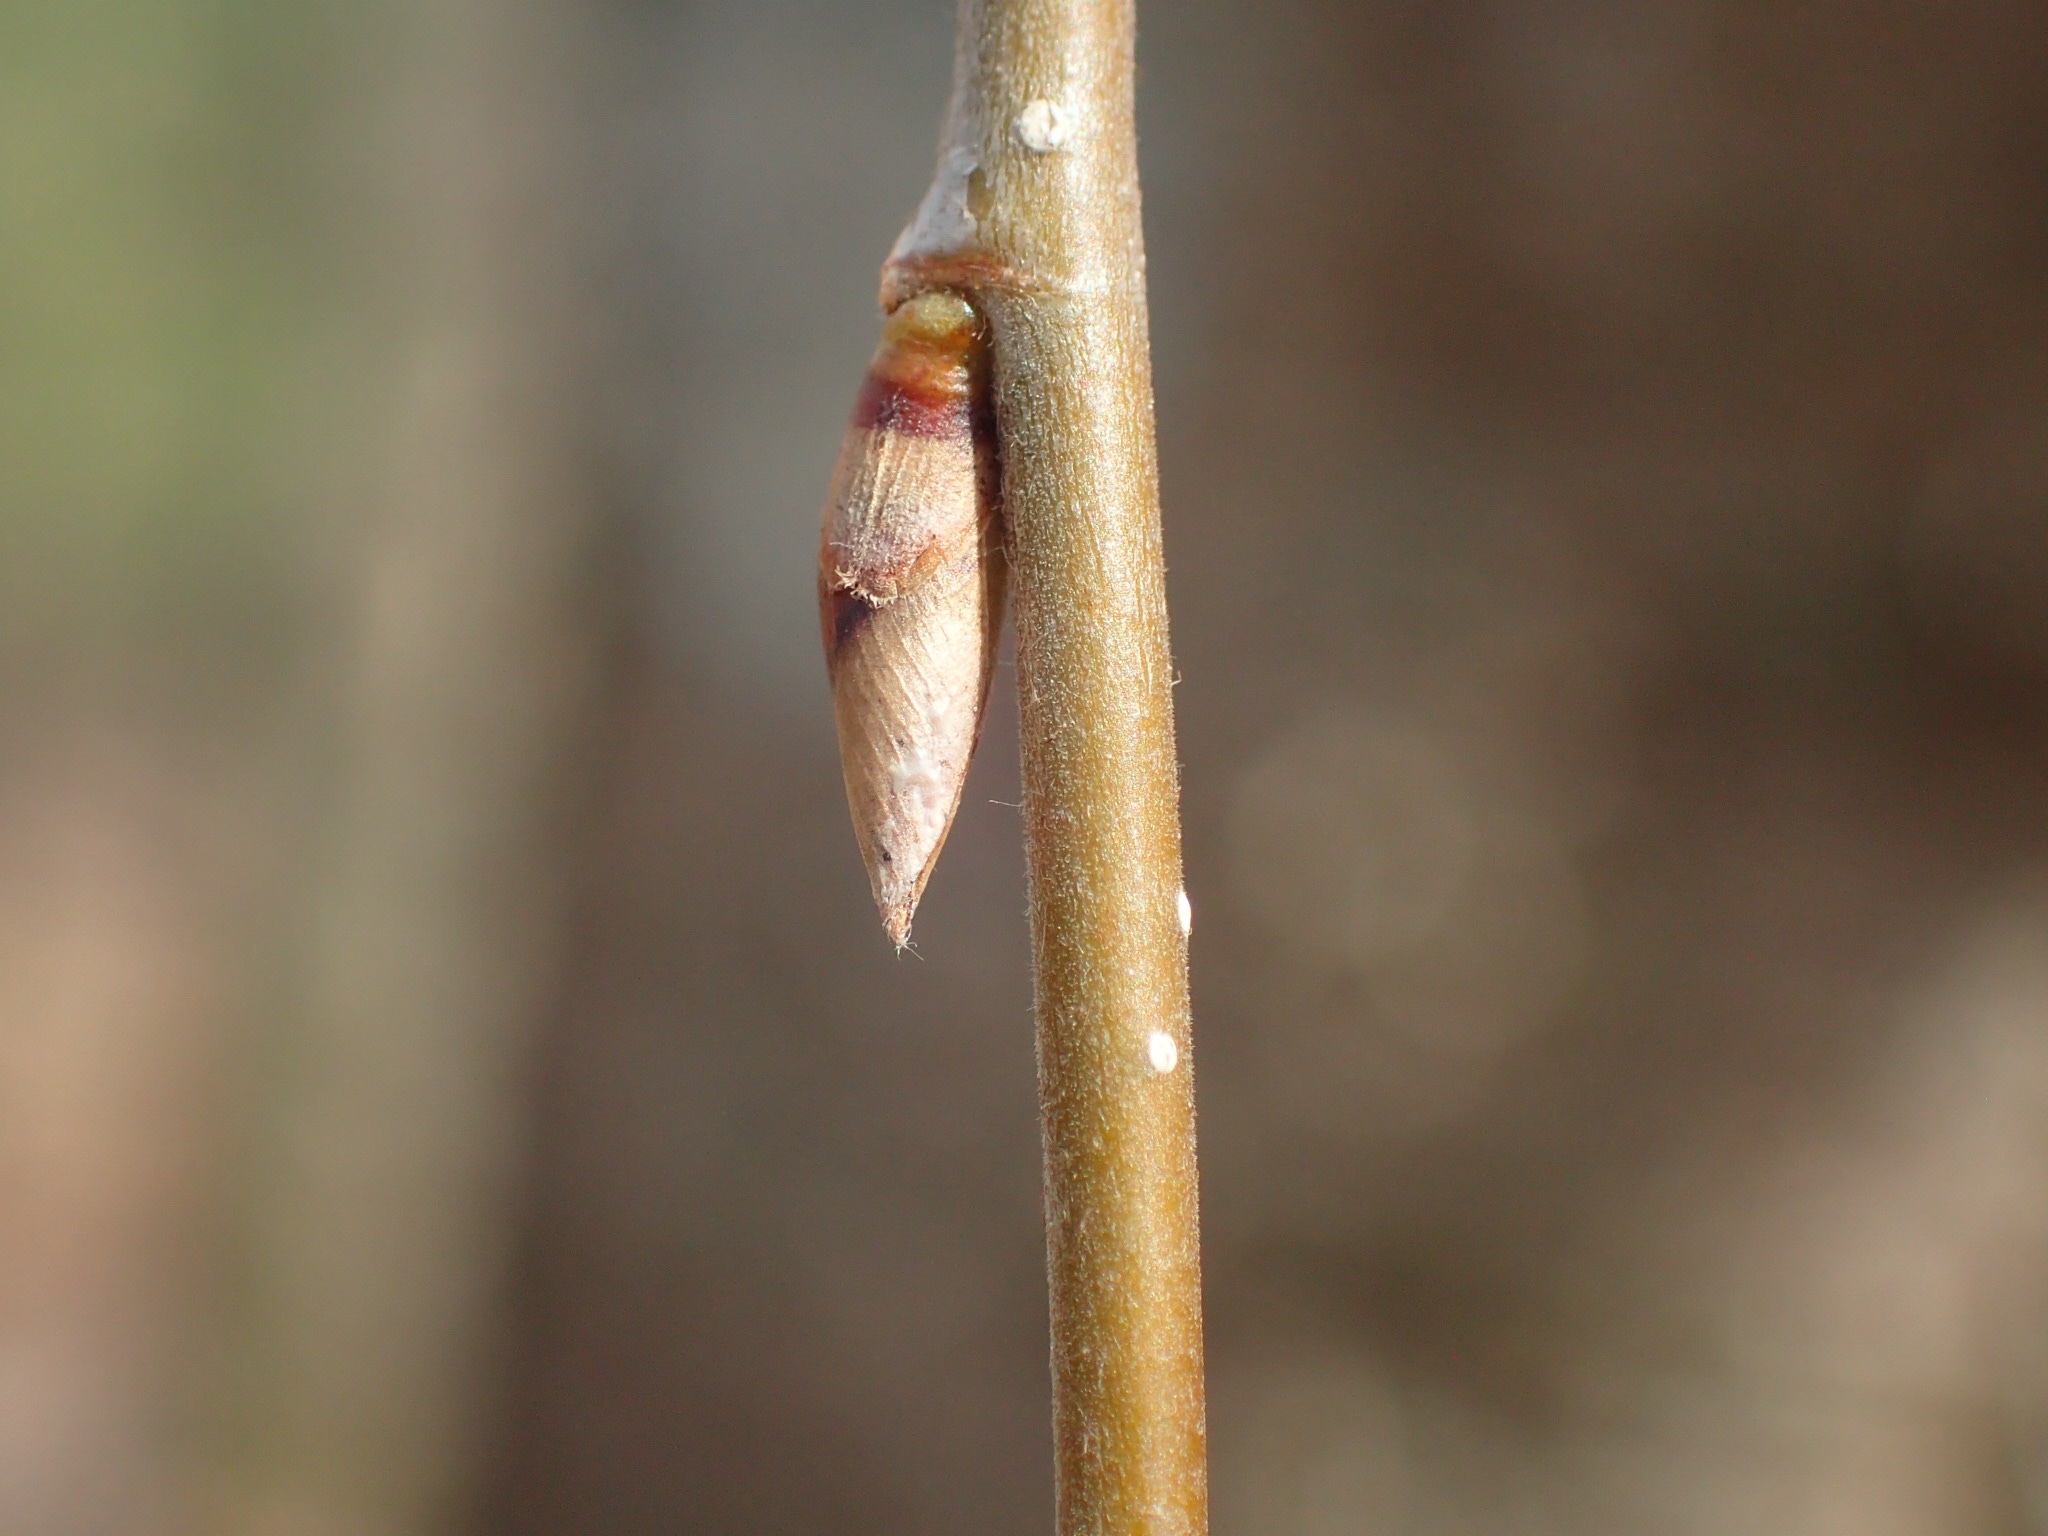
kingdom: Plantae
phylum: Tracheophyta
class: Magnoliopsida
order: Fagales
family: Betulaceae
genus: Betula
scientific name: Betula alleghaniensis
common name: Yellow birch
